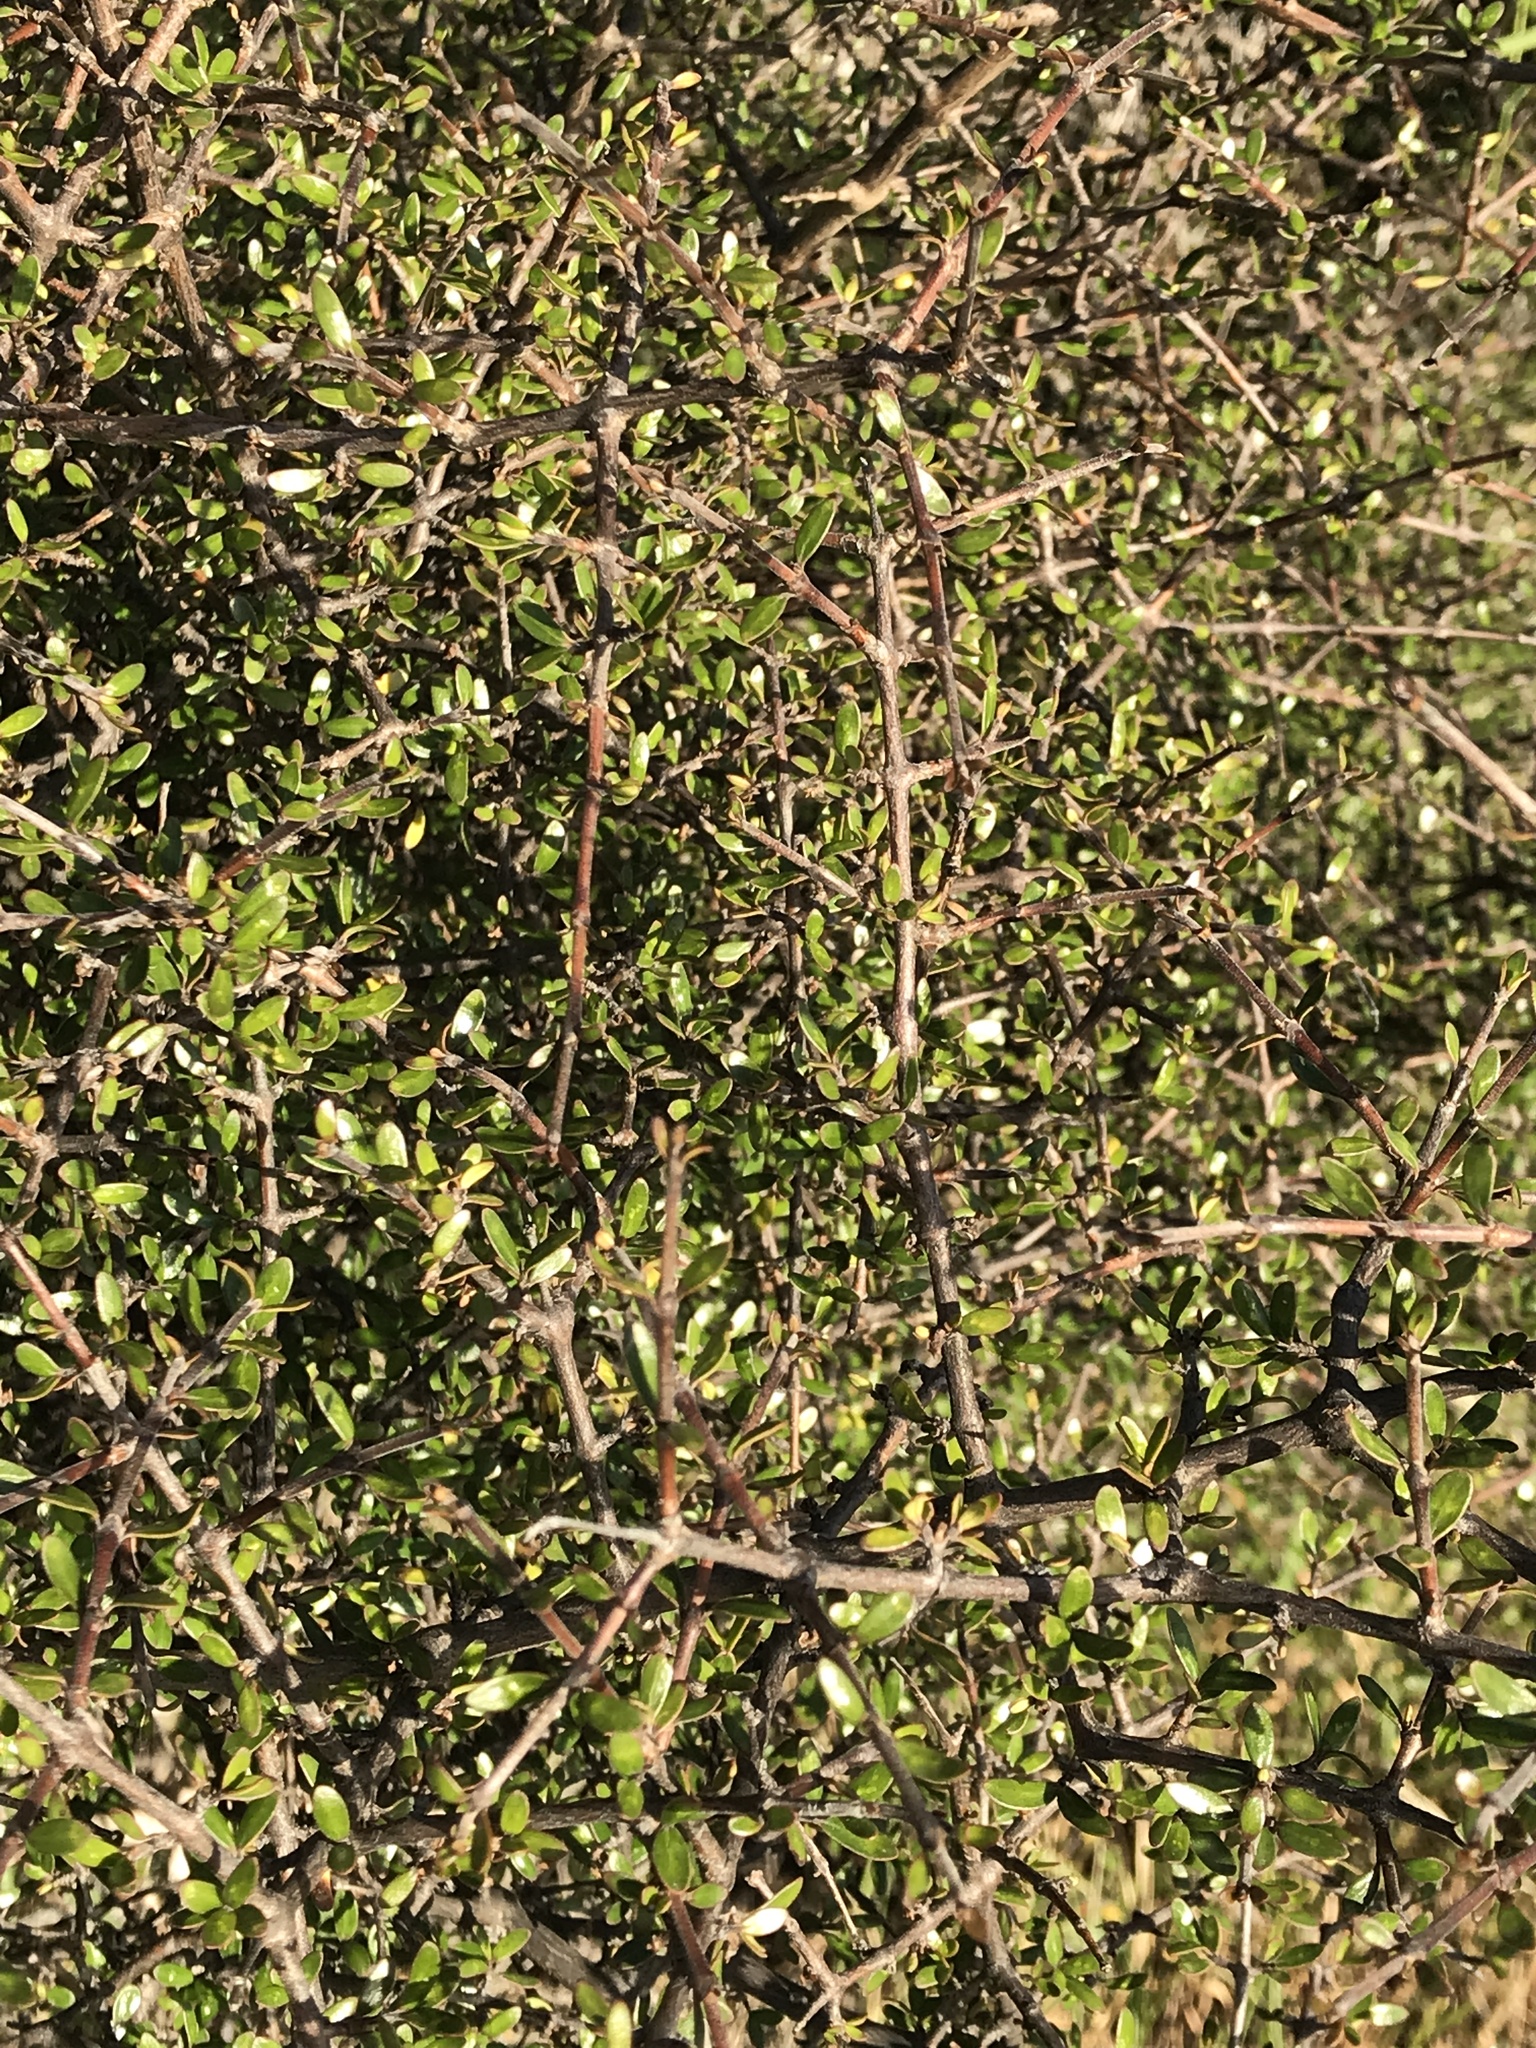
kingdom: Plantae
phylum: Tracheophyta
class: Magnoliopsida
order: Gentianales
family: Rubiaceae
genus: Coprosma
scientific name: Coprosma propinqua
